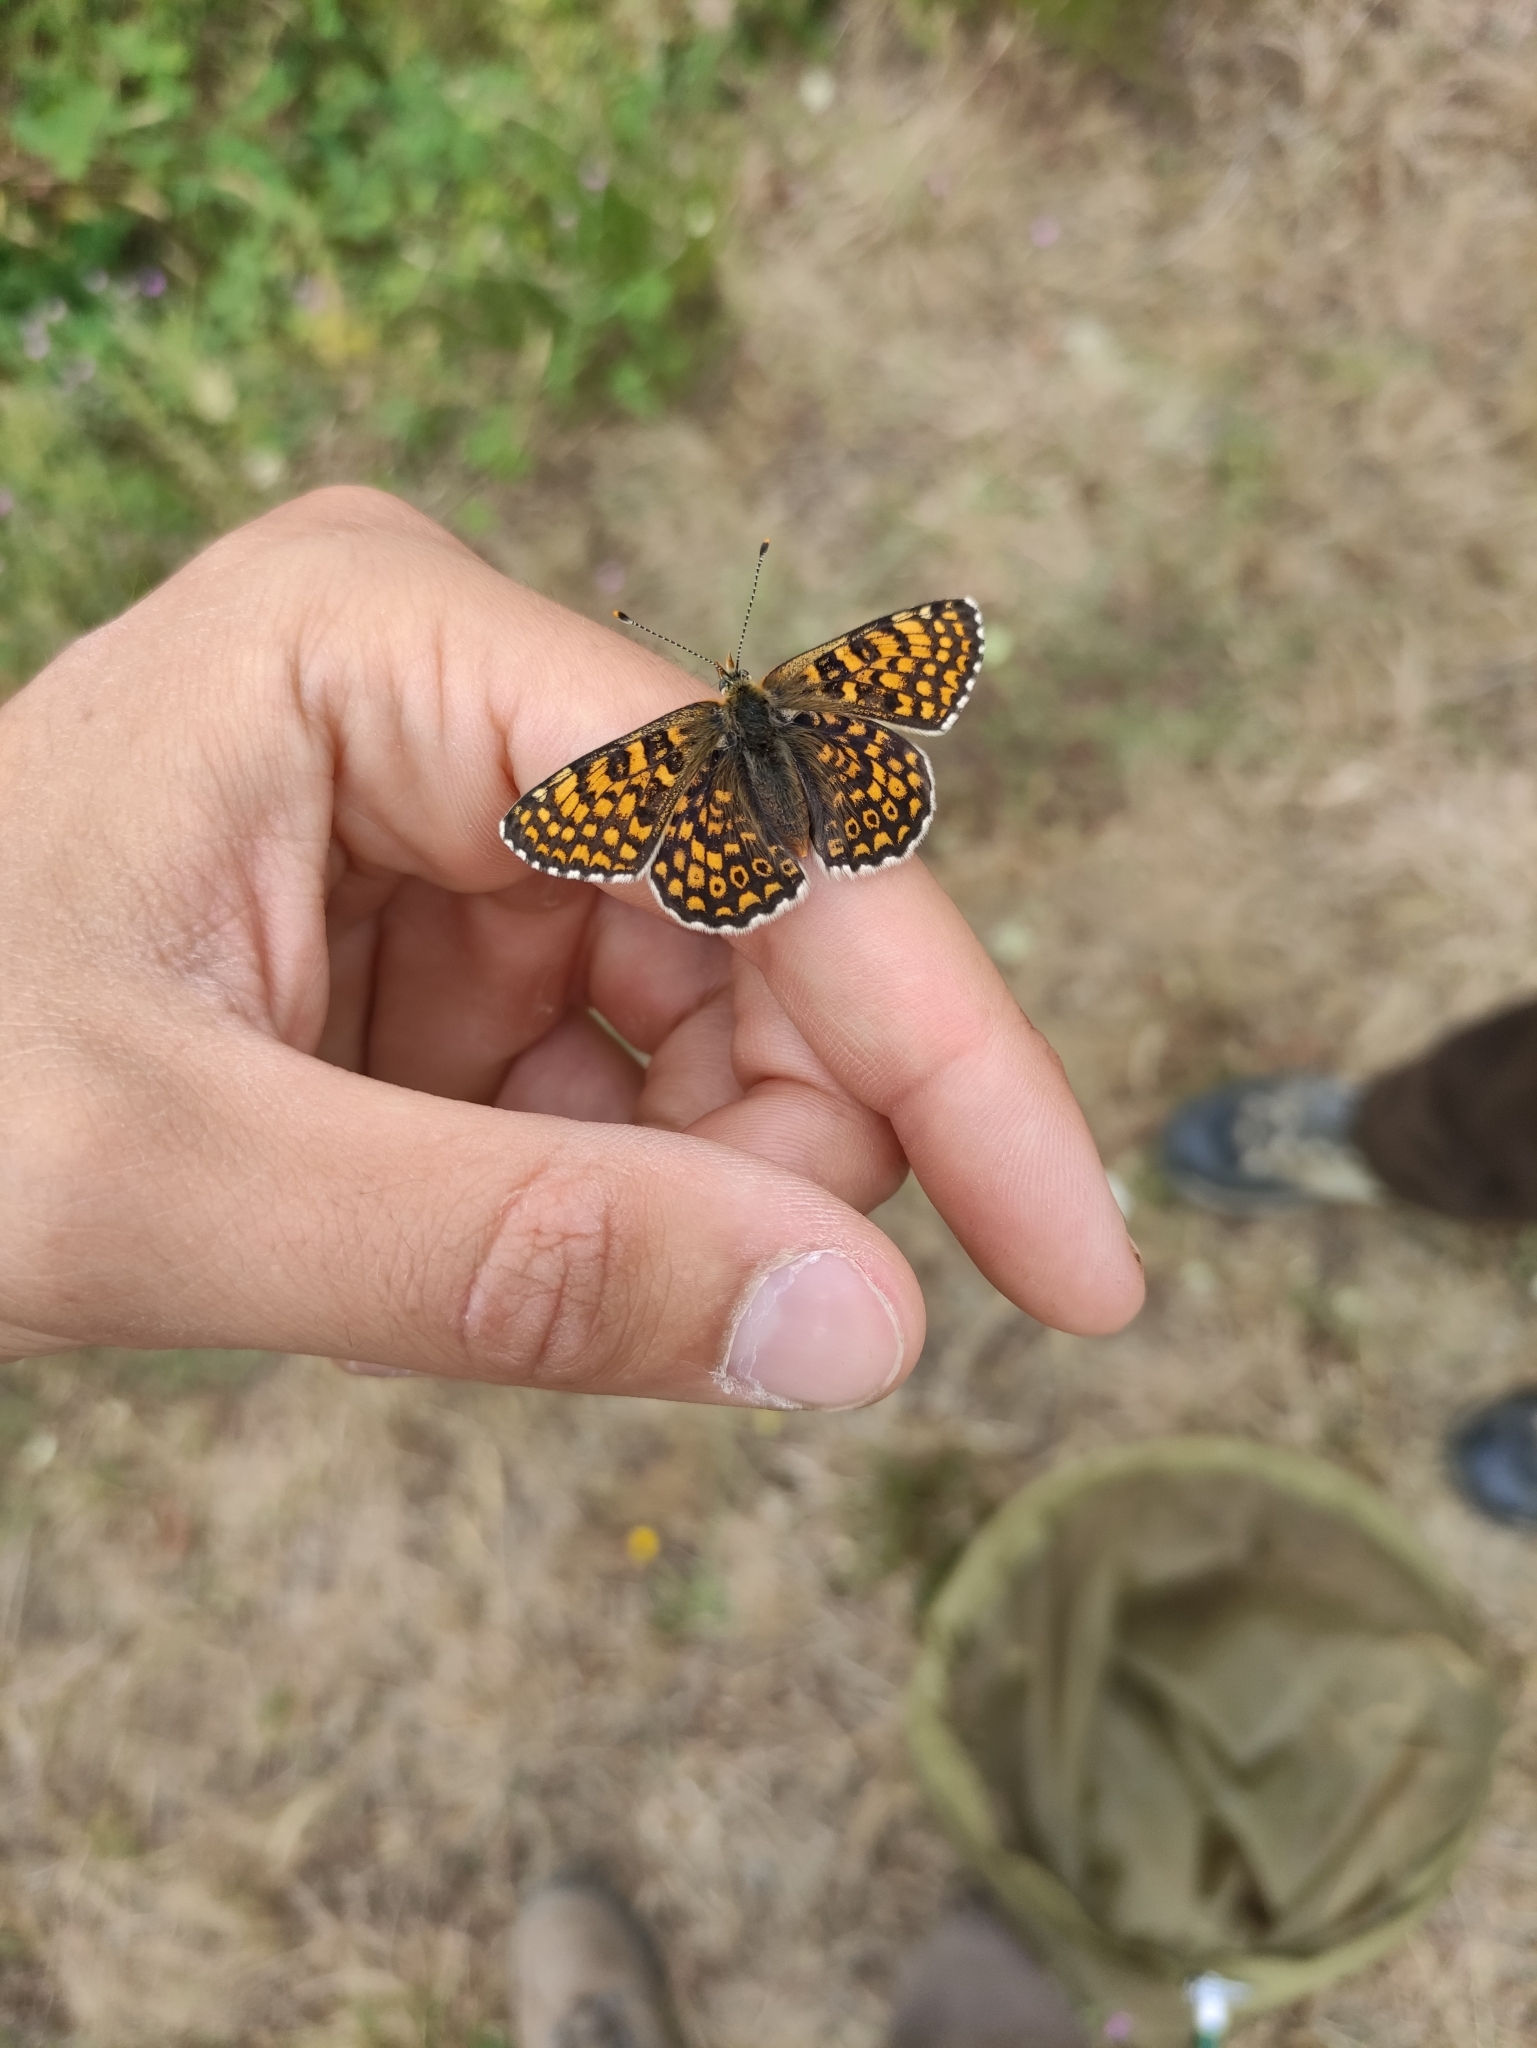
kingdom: Animalia
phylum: Arthropoda
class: Insecta
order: Lepidoptera
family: Nymphalidae
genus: Melitaea
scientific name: Melitaea cinxia
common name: Glanville fritillary
